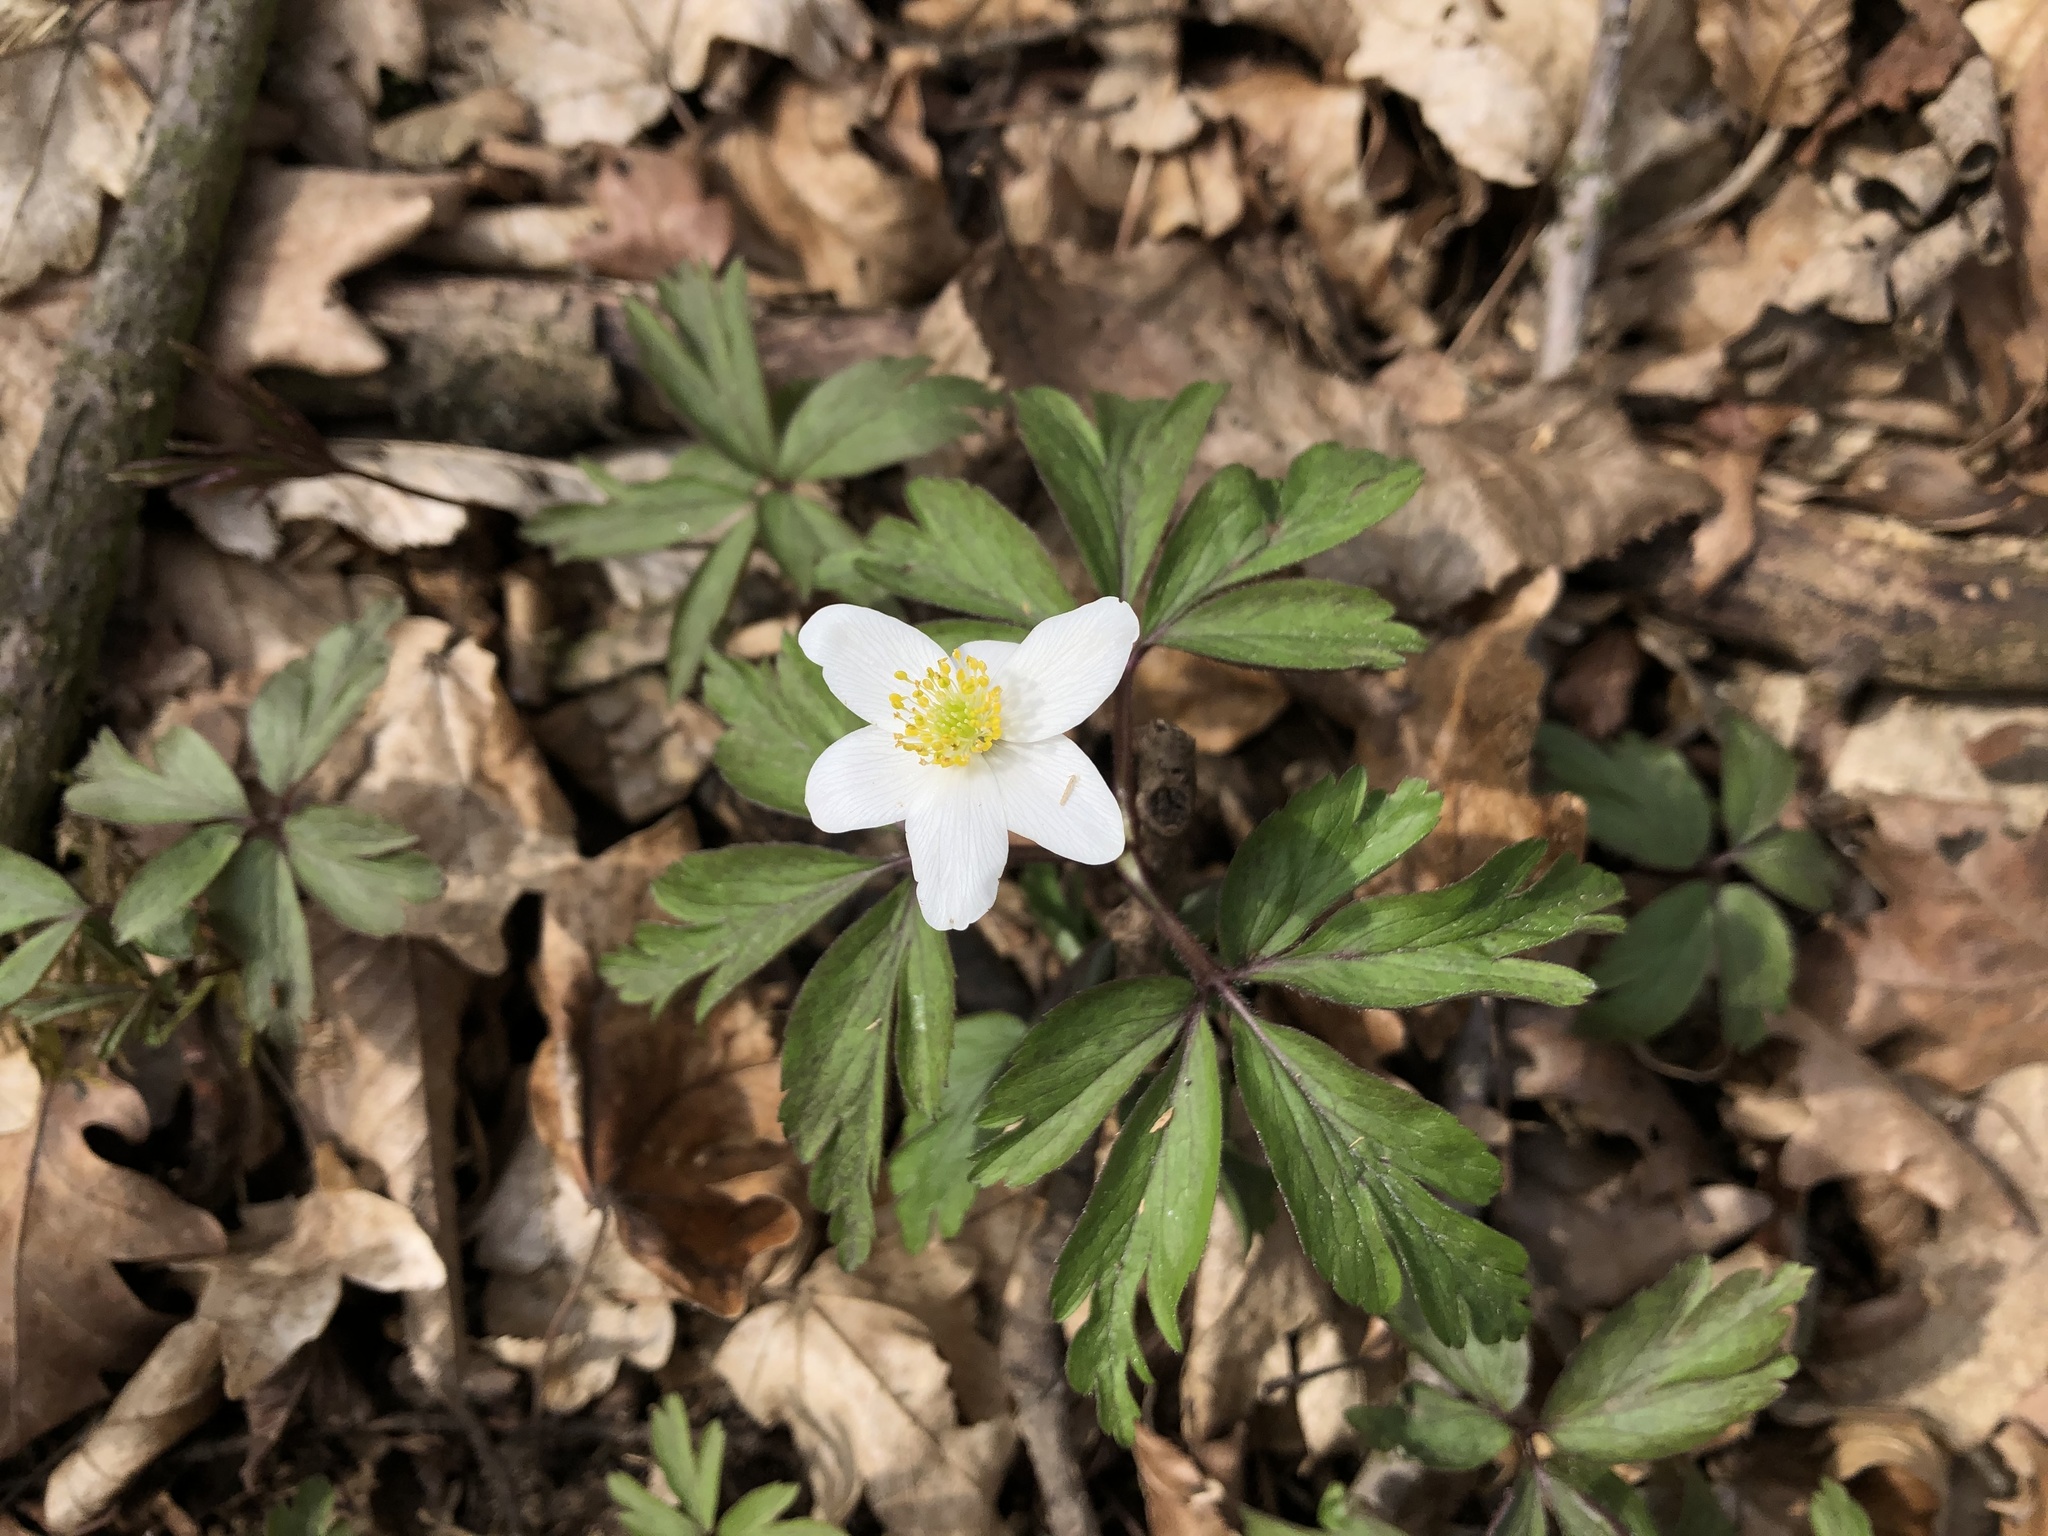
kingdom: Plantae
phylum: Tracheophyta
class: Magnoliopsida
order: Ranunculales
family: Ranunculaceae
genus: Anemone
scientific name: Anemone nemorosa
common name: Wood anemone
